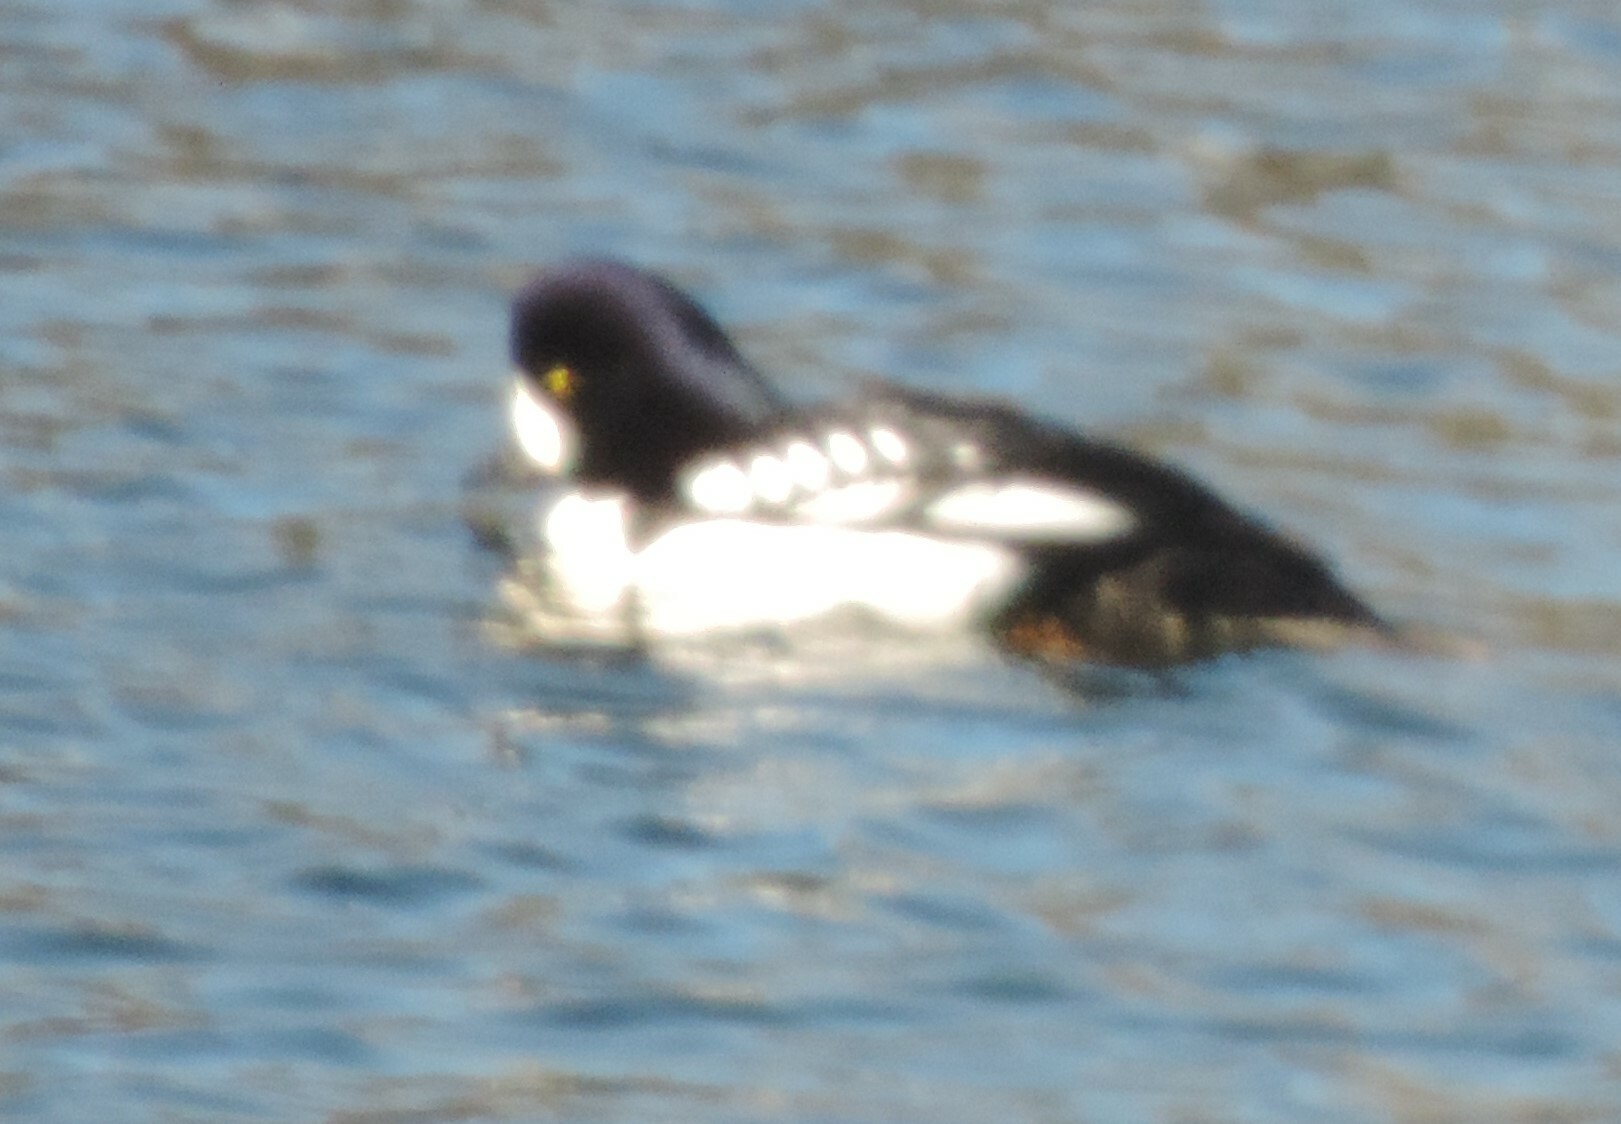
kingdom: Animalia
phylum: Chordata
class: Aves
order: Anseriformes
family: Anatidae
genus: Bucephala
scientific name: Bucephala islandica
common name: Barrow's goldeneye
